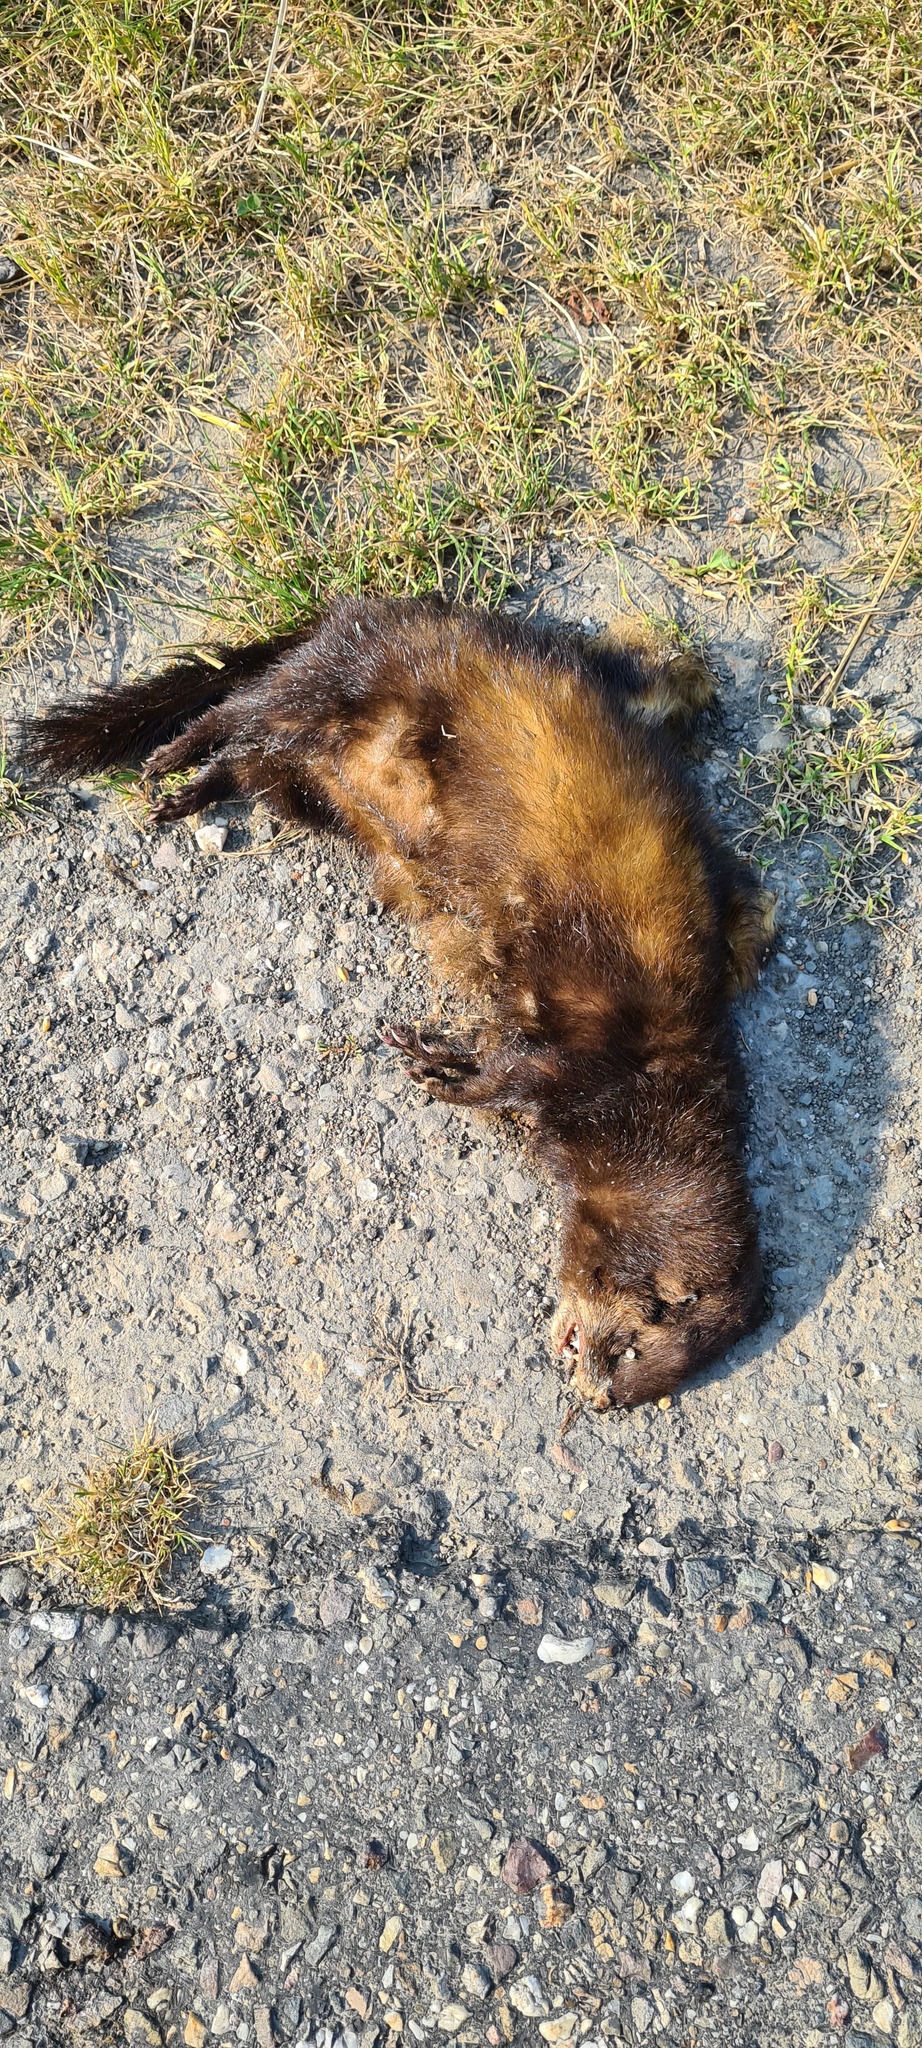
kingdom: Animalia
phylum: Chordata
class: Mammalia
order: Carnivora
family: Mustelidae
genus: Mustela
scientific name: Mustela putorius
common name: European polecat
